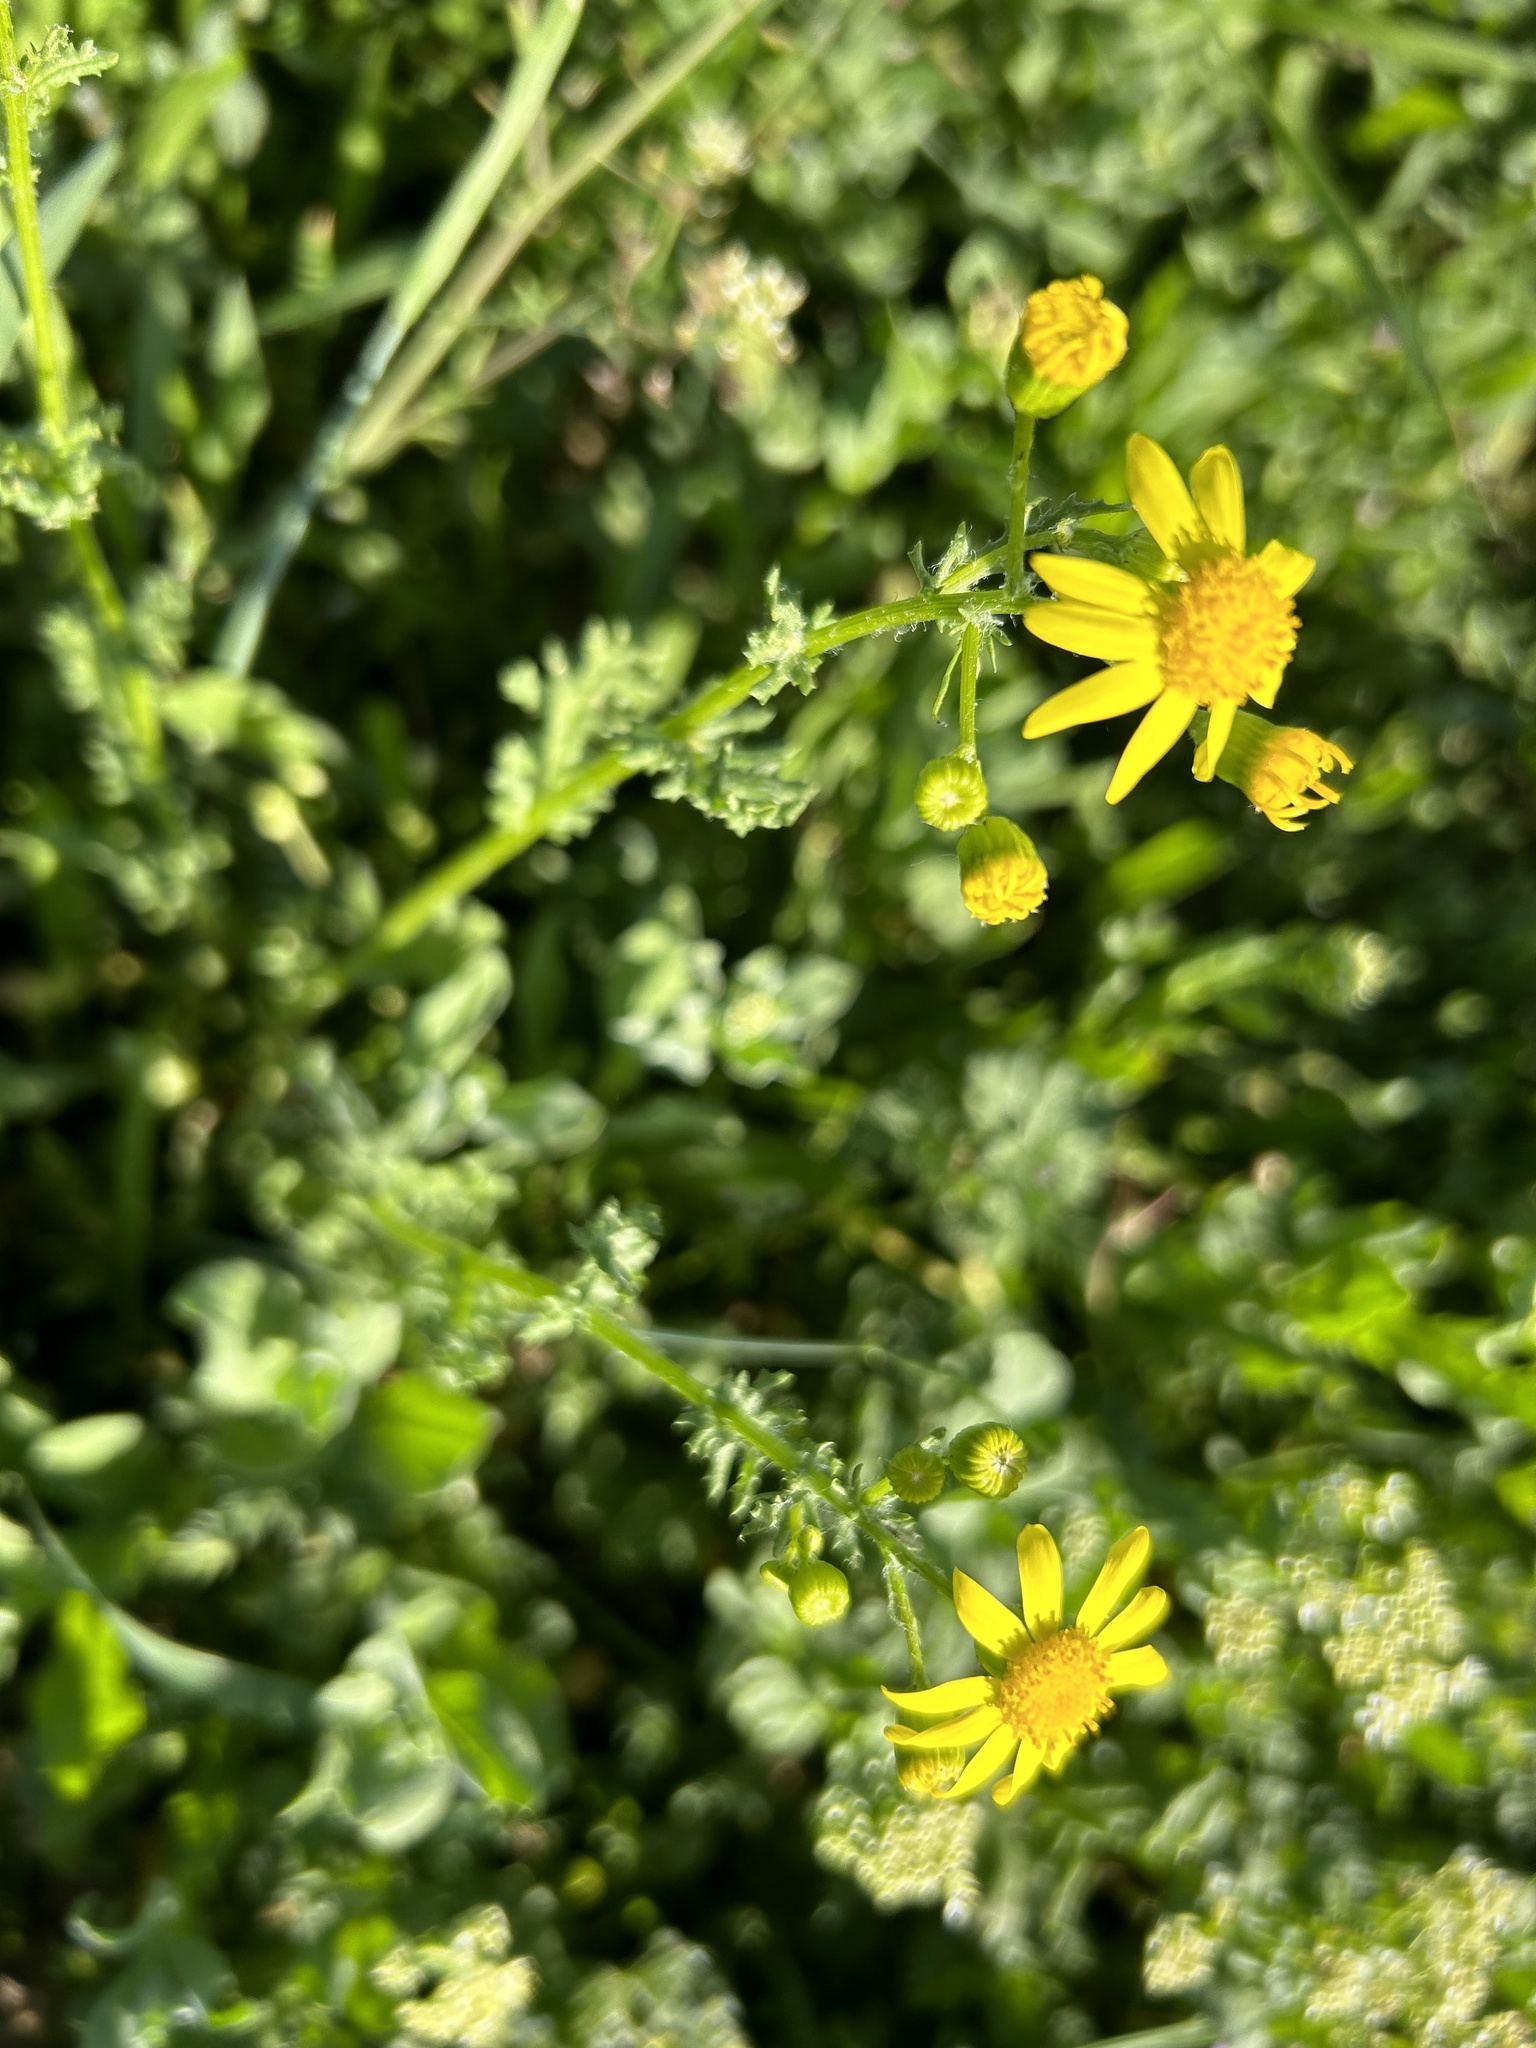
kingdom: Plantae
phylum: Tracheophyta
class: Magnoliopsida
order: Asterales
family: Asteraceae
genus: Senecio
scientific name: Senecio vernalis
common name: Eastern groundsel
